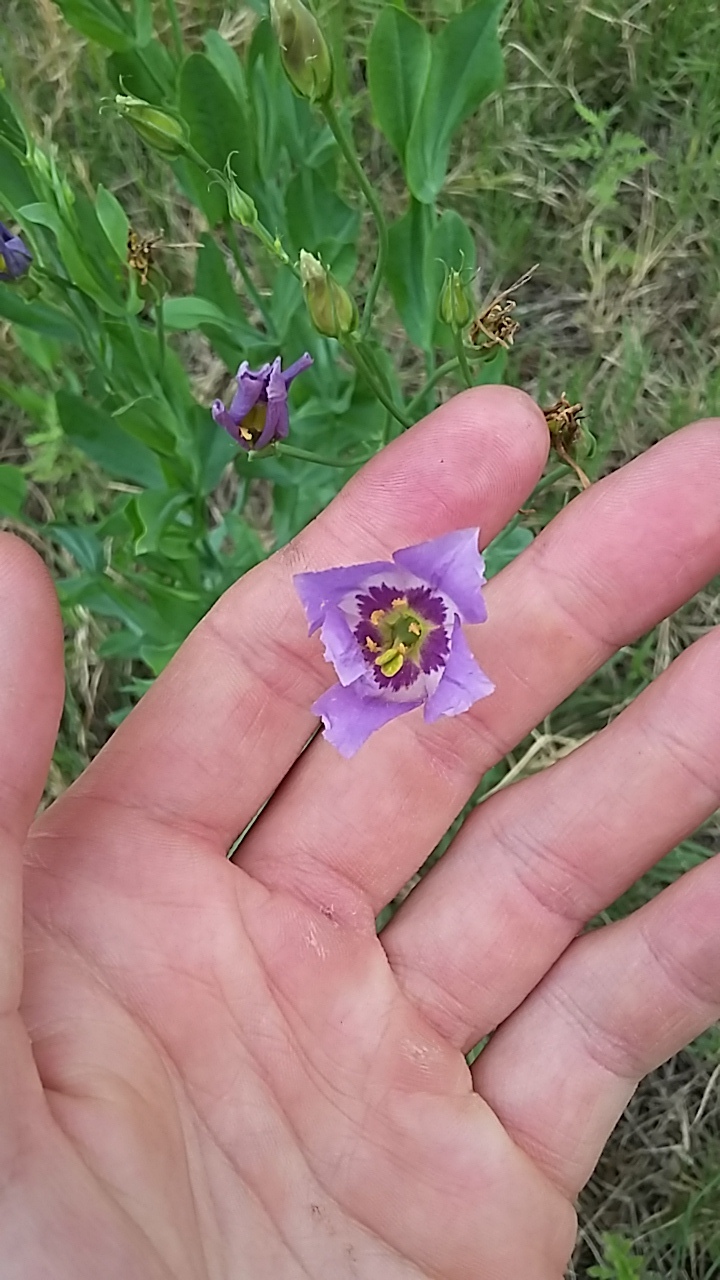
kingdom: Plantae
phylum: Tracheophyta
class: Magnoliopsida
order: Gentianales
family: Gentianaceae
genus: Eustoma
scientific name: Eustoma exaltatum
